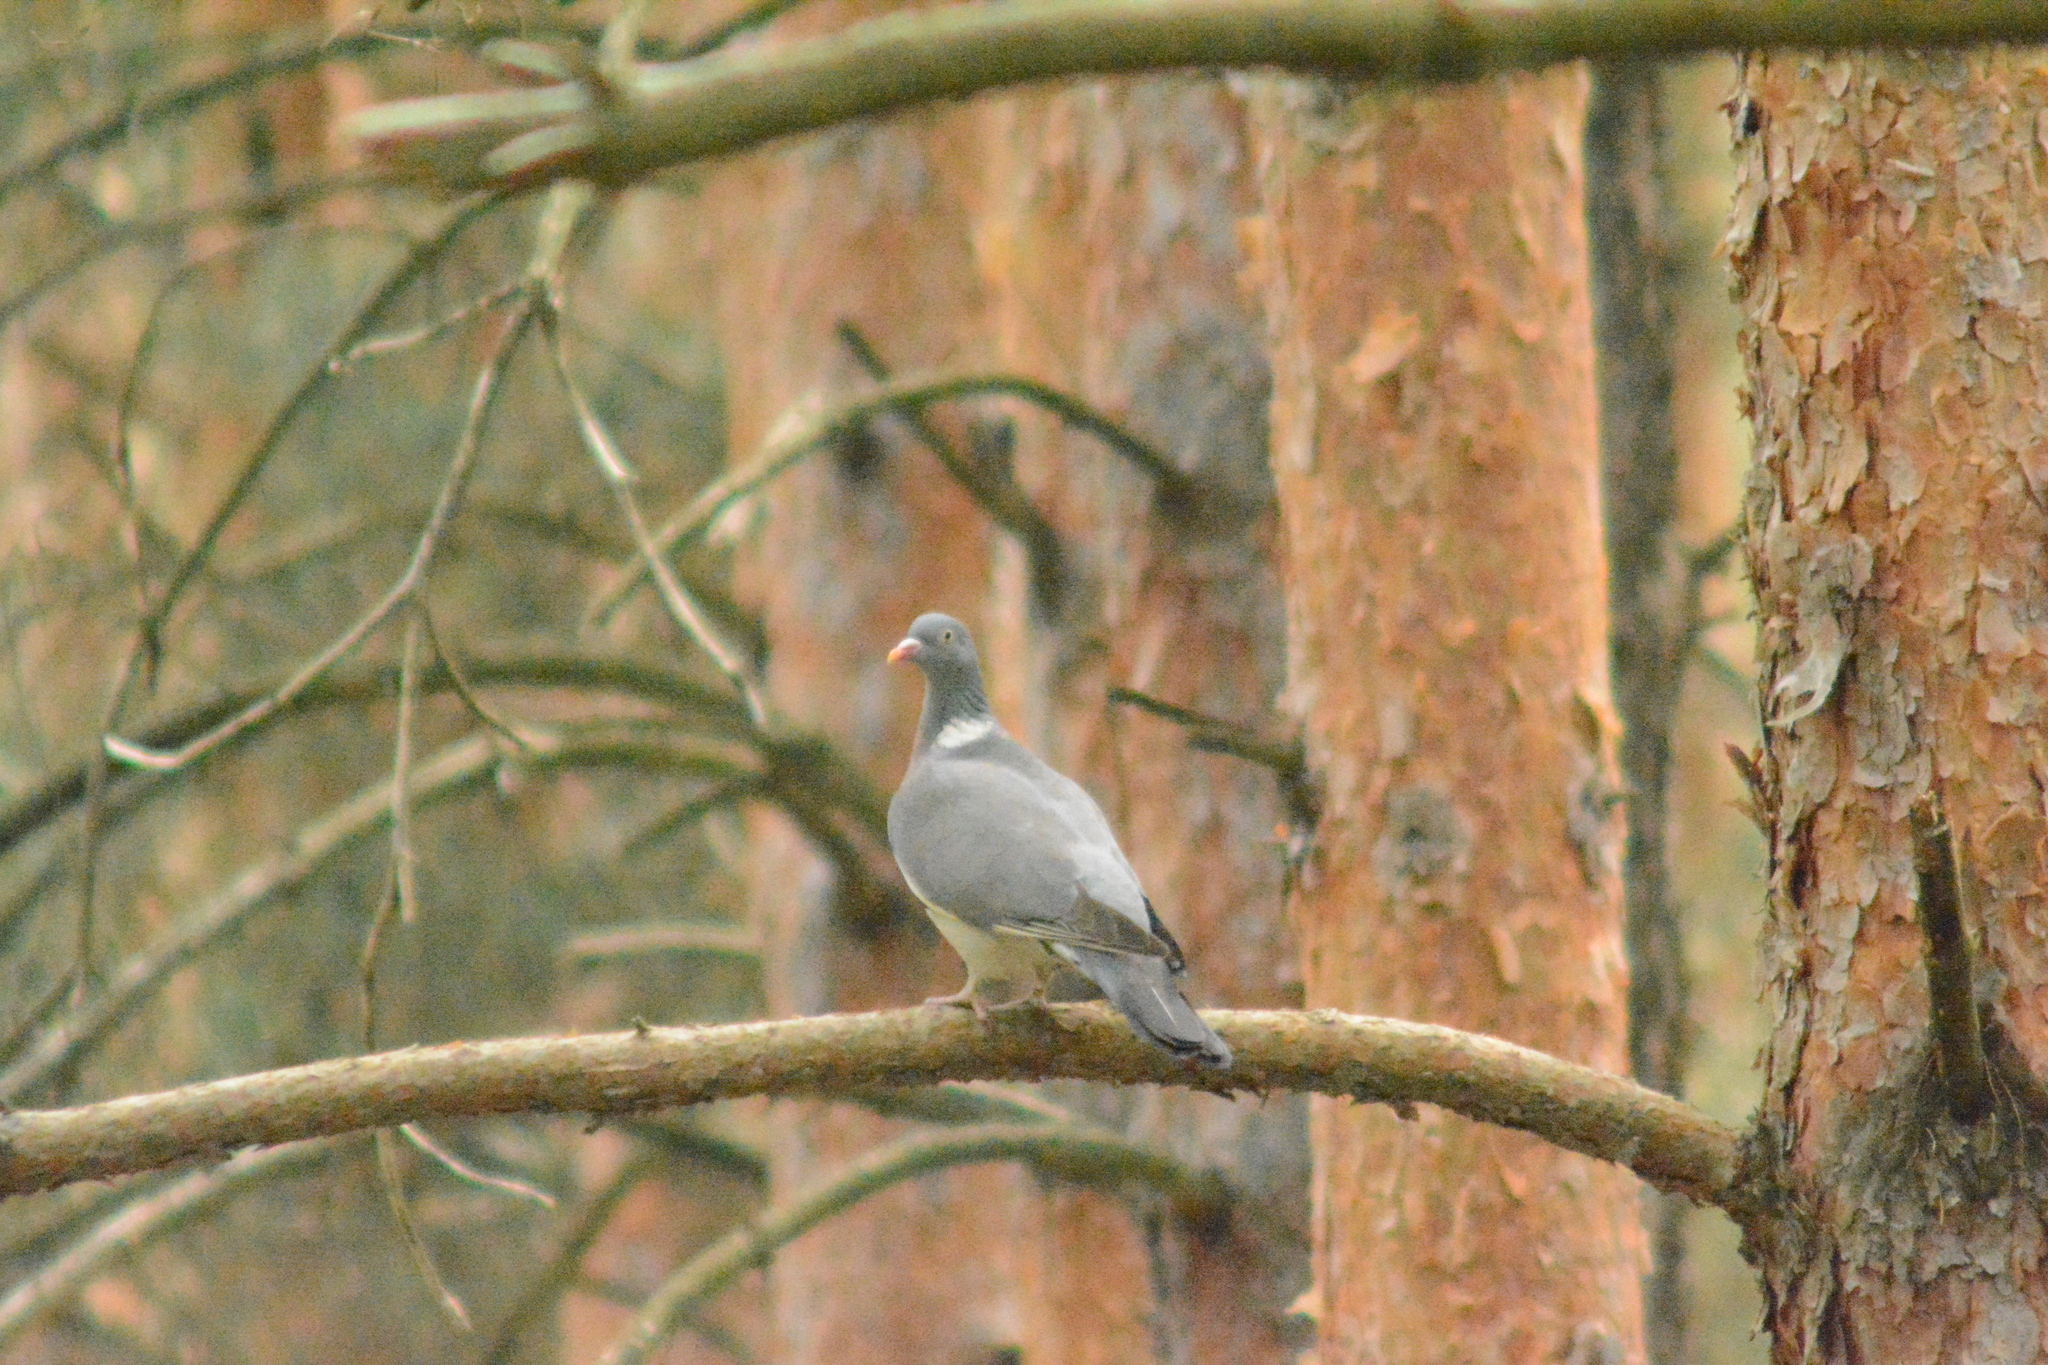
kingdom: Animalia
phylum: Chordata
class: Aves
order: Columbiformes
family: Columbidae
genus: Columba
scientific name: Columba palumbus
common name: Common wood pigeon
